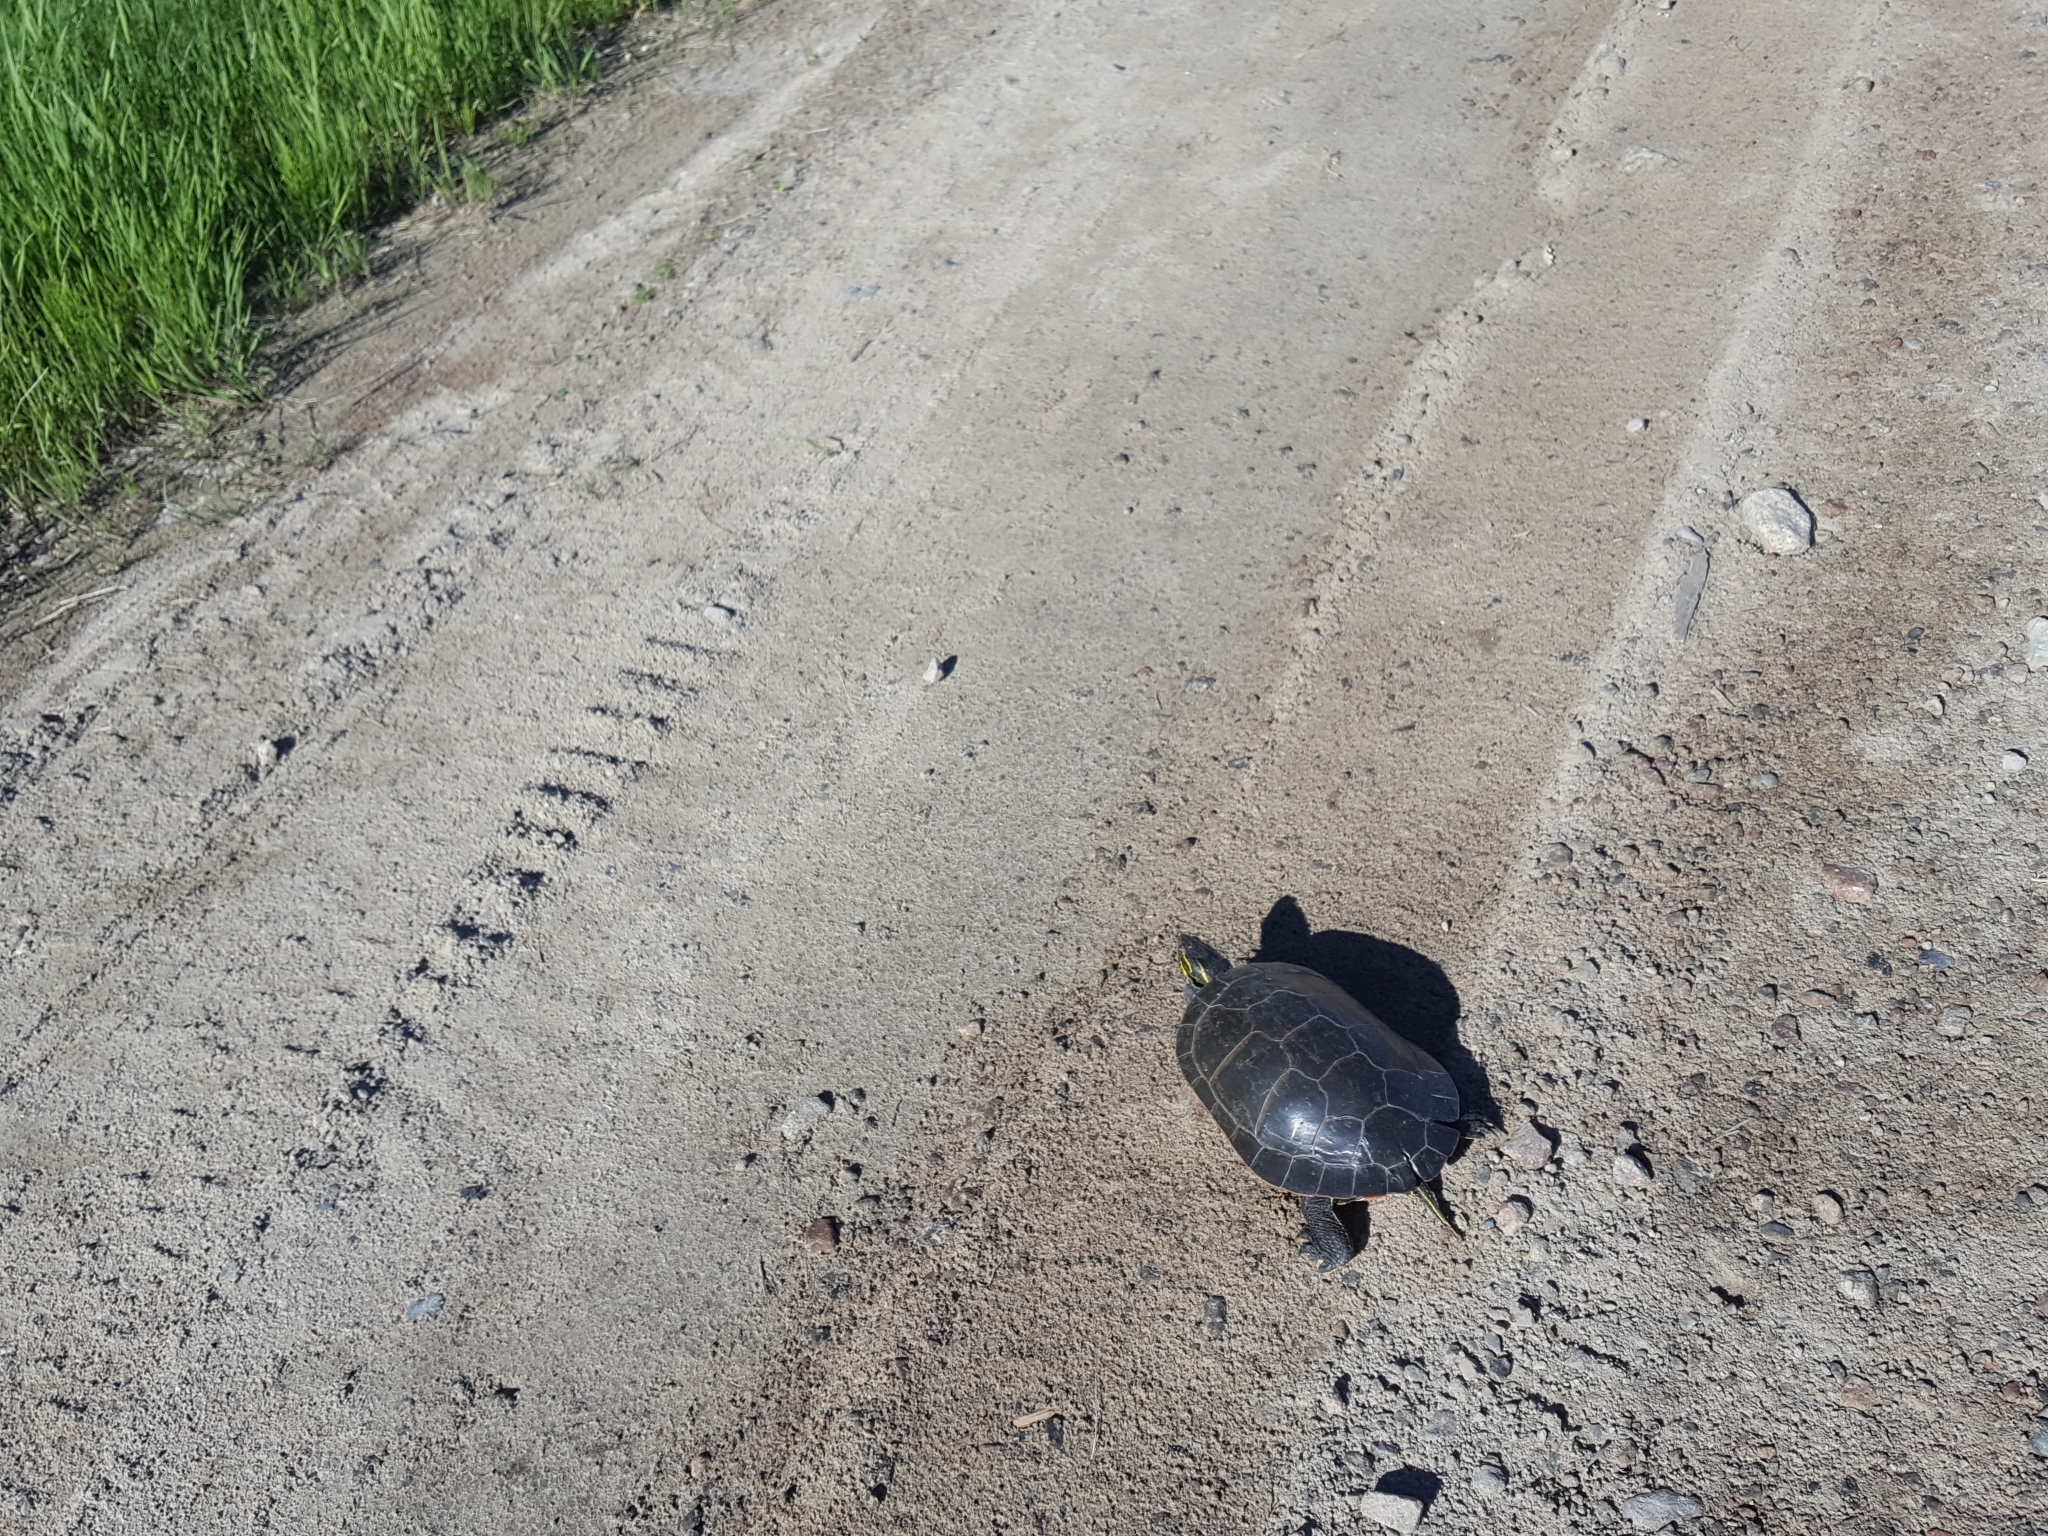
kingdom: Animalia
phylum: Chordata
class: Testudines
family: Emydidae
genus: Chrysemys
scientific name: Chrysemys picta
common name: Painted turtle
